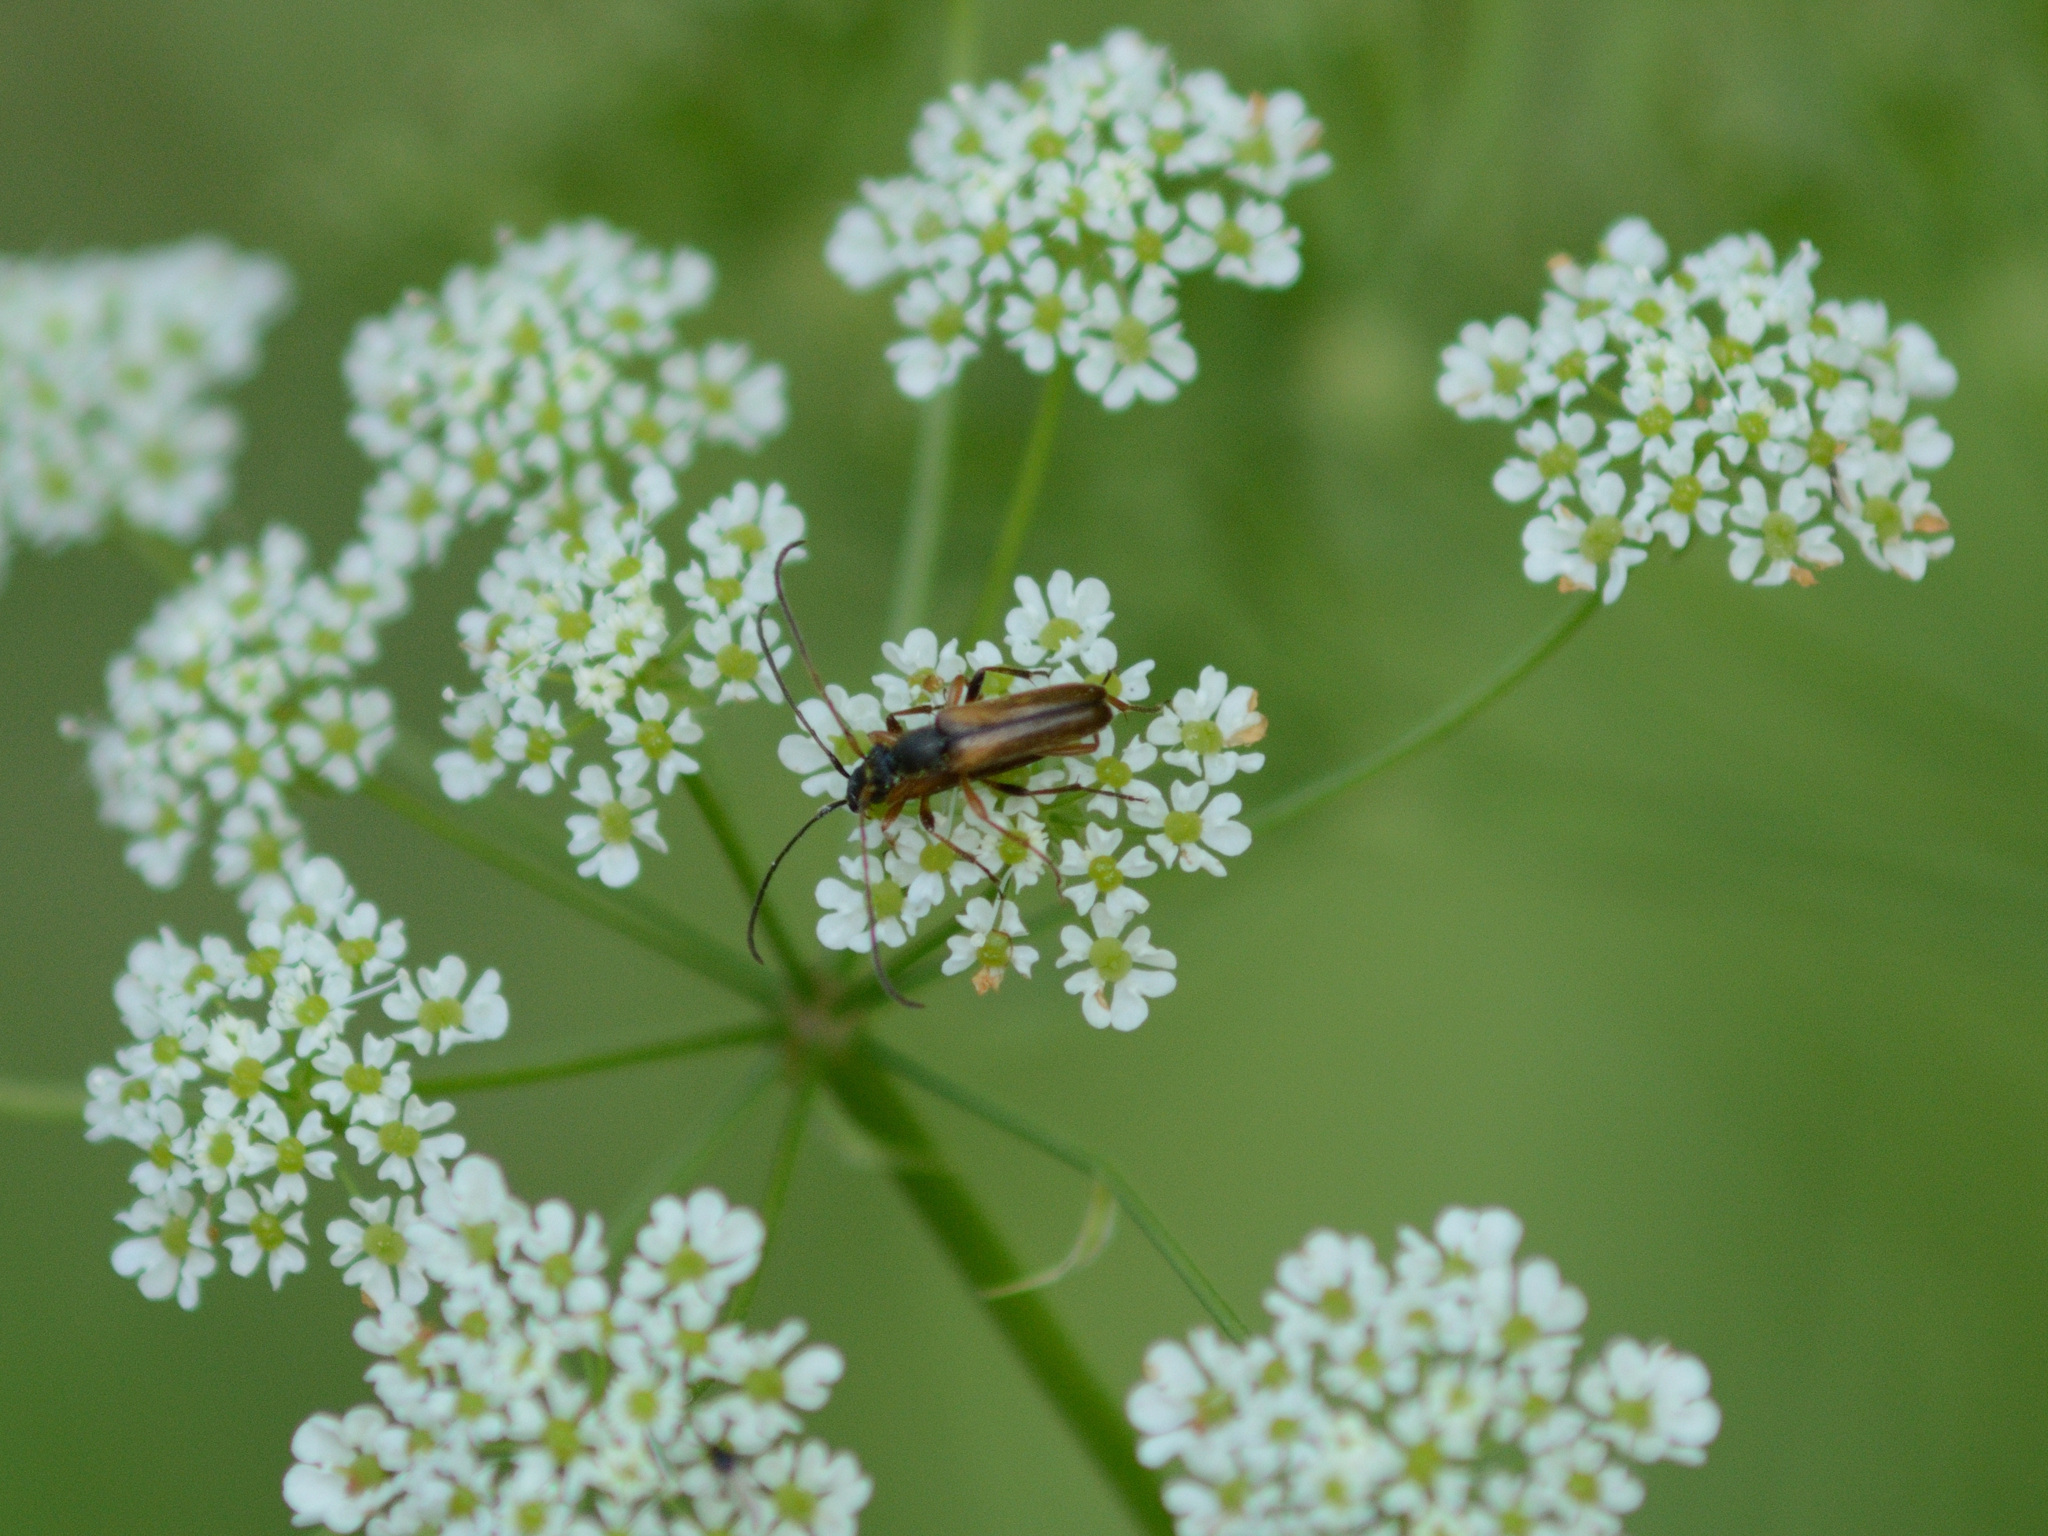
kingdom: Animalia
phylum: Arthropoda
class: Insecta
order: Coleoptera
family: Cerambycidae
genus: Alosterna
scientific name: Alosterna tabacicolor
